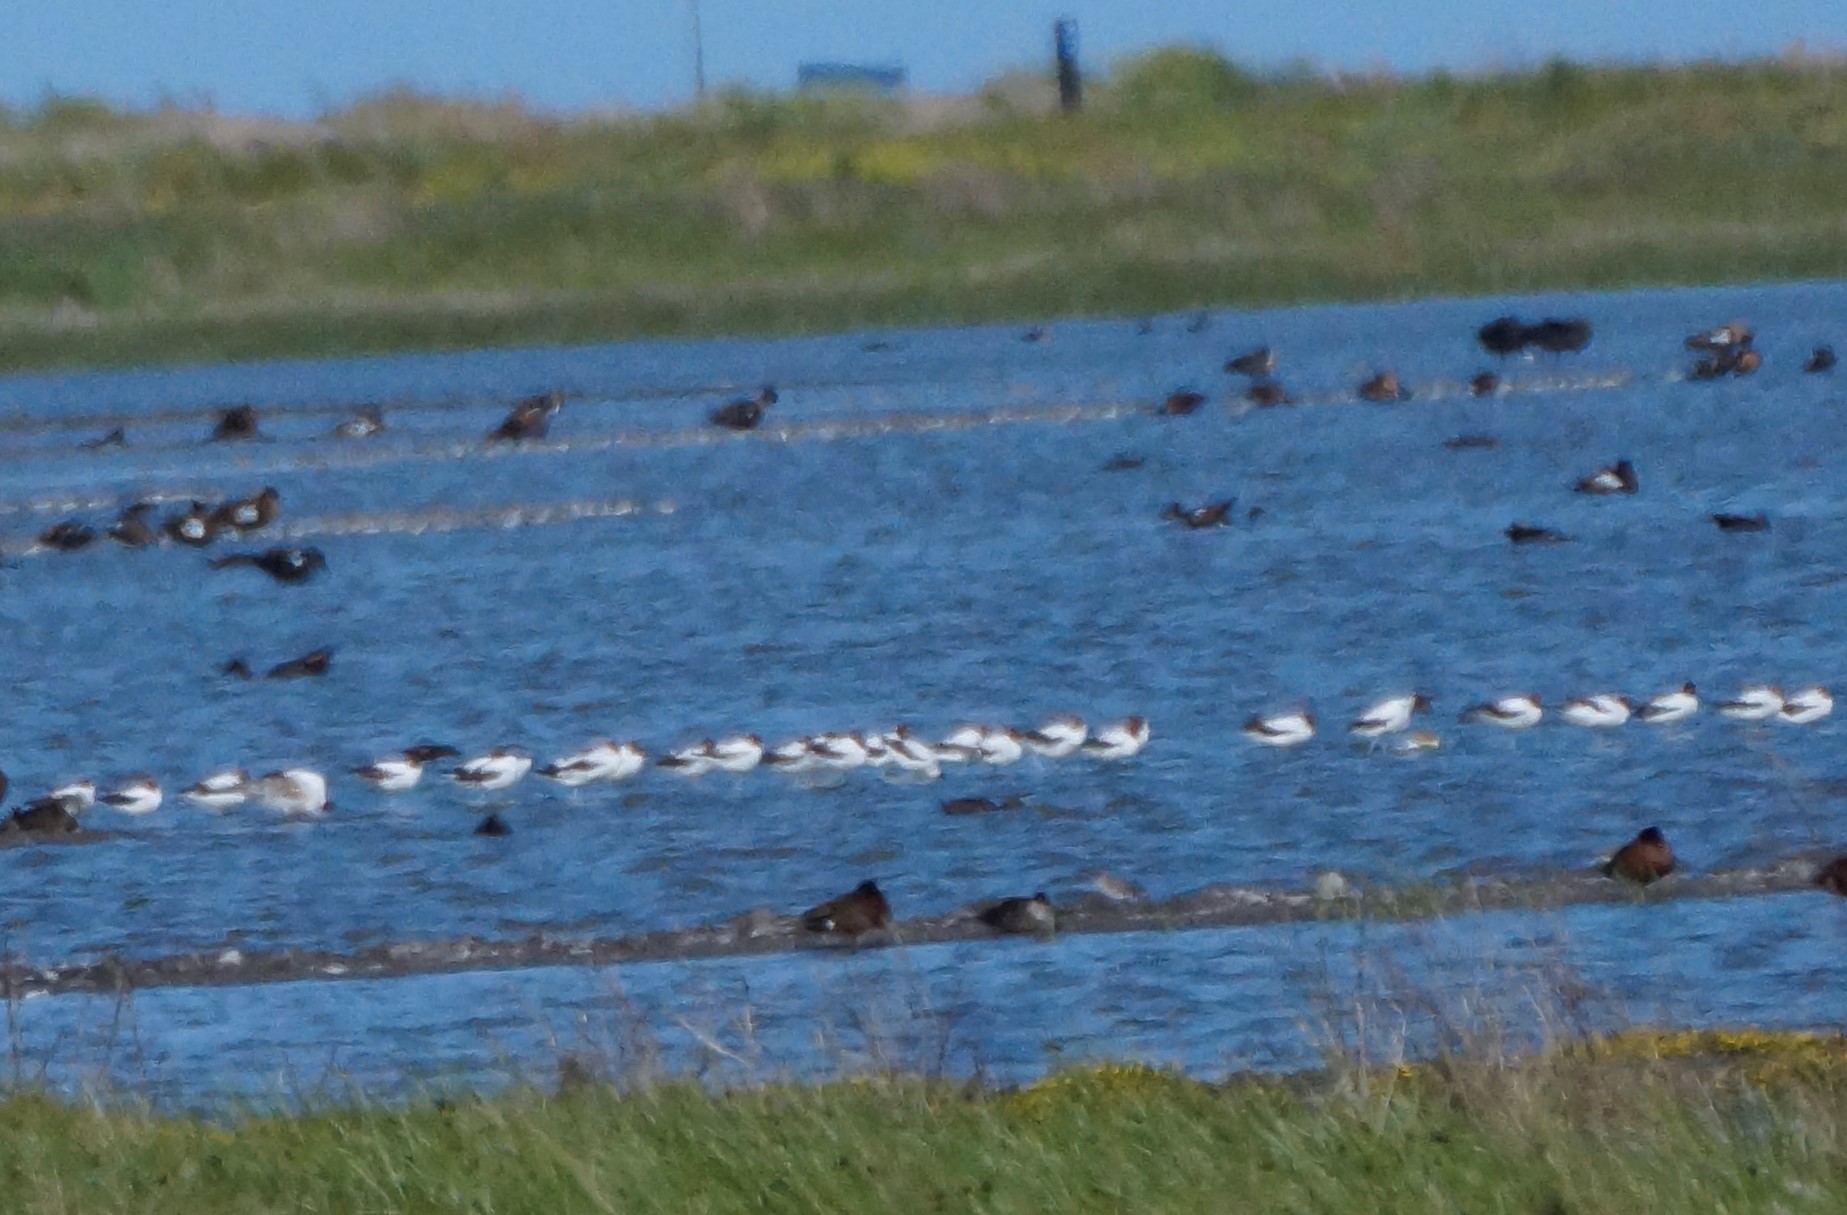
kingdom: Animalia
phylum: Chordata
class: Aves
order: Charadriiformes
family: Recurvirostridae
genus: Recurvirostra
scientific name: Recurvirostra novaehollandiae
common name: Red-necked avocet
